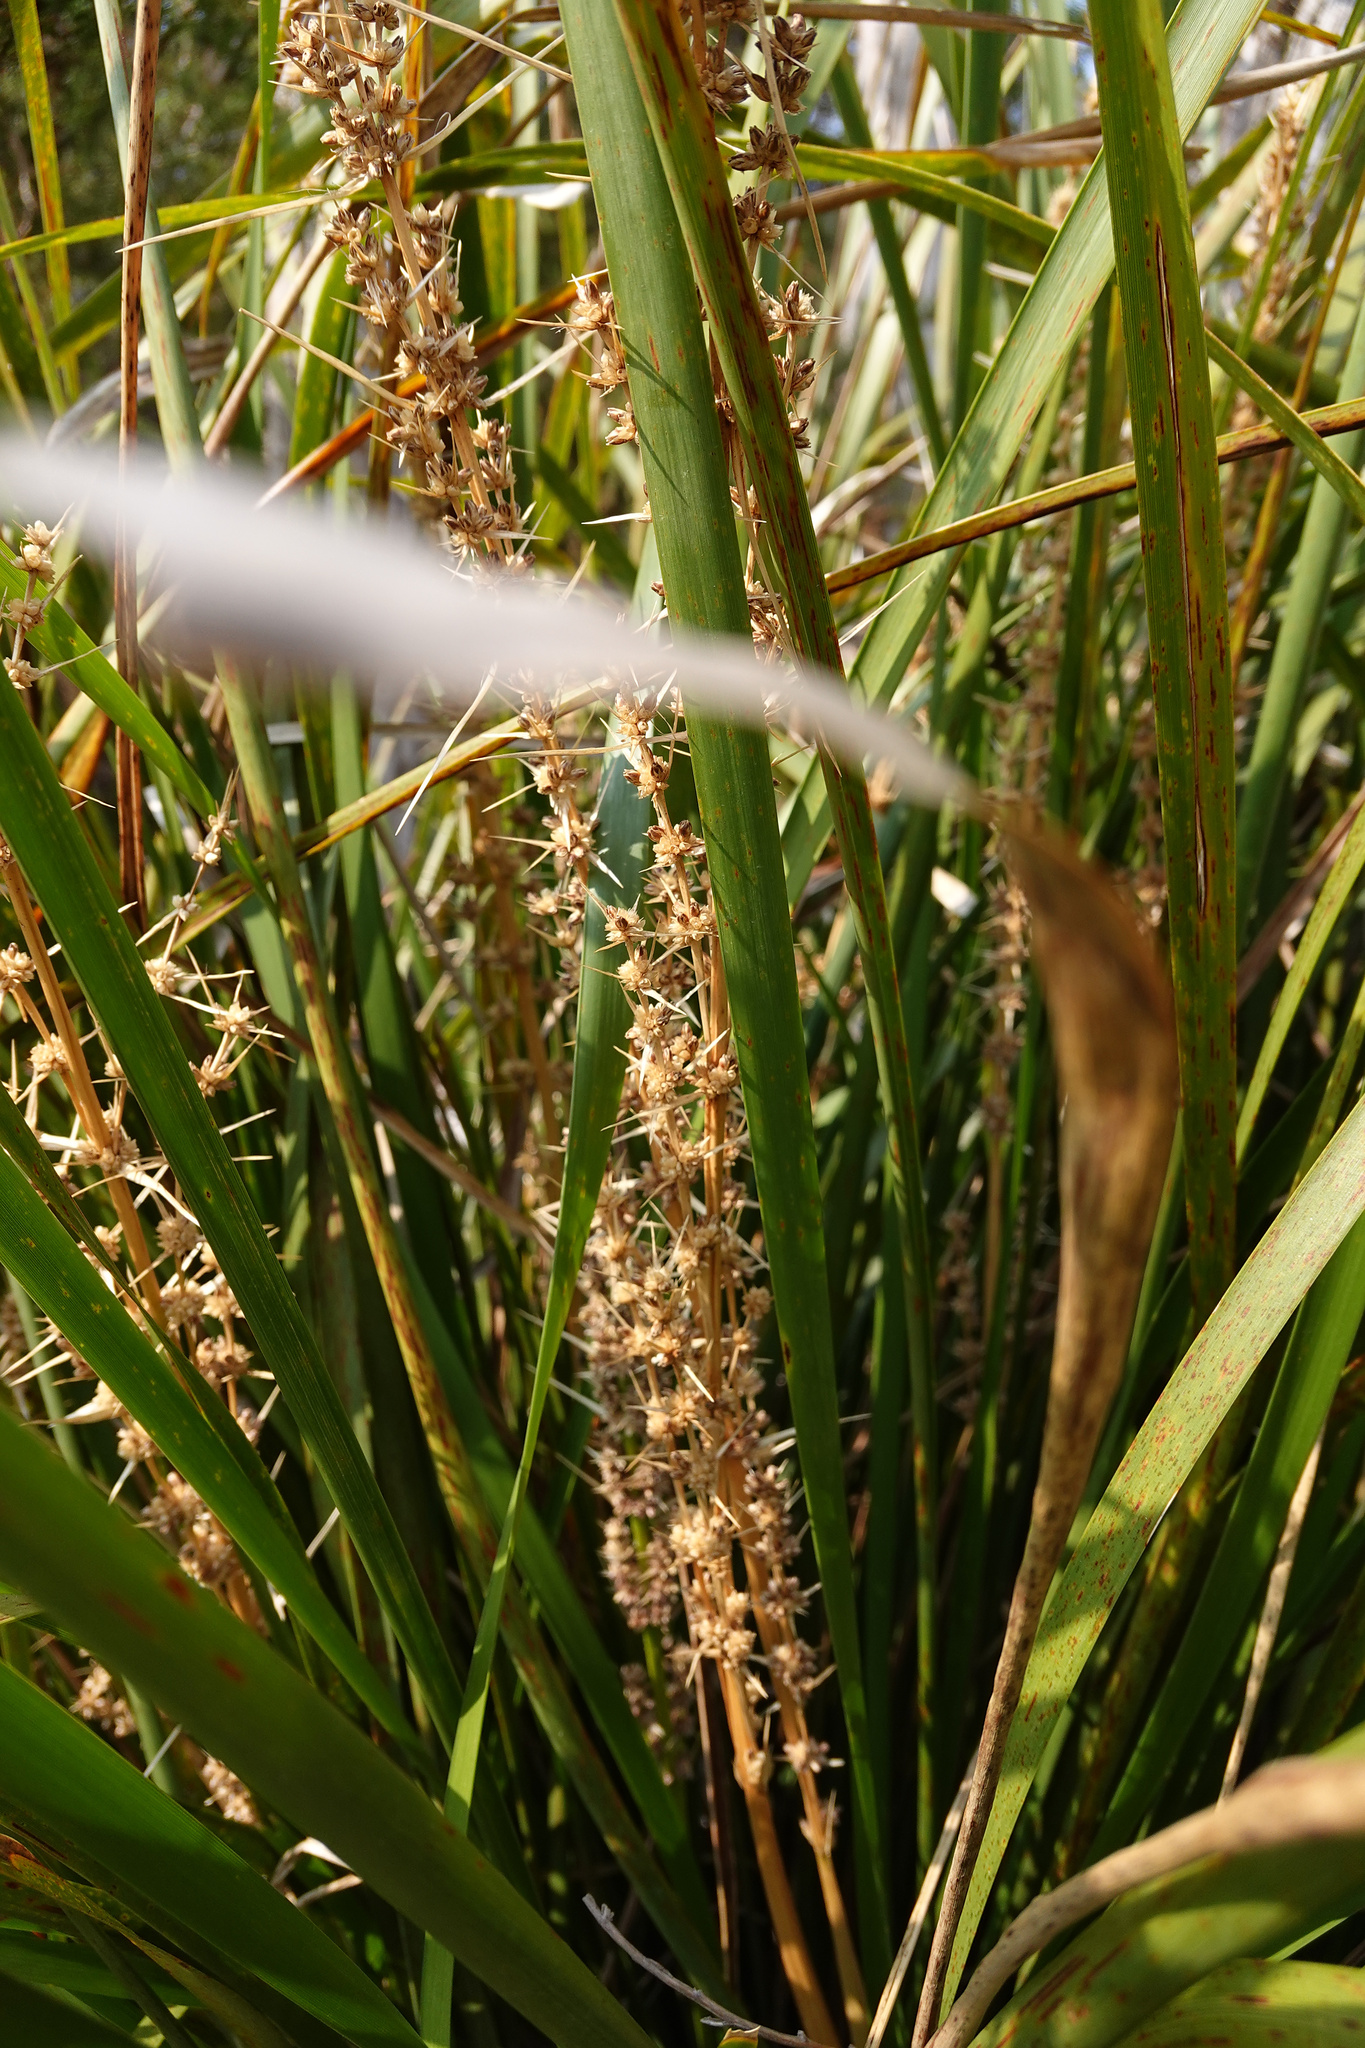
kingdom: Plantae
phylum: Tracheophyta
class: Liliopsida
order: Asparagales
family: Asparagaceae
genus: Lomandra
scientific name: Lomandra longifolia
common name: Longleaf mat-rush
